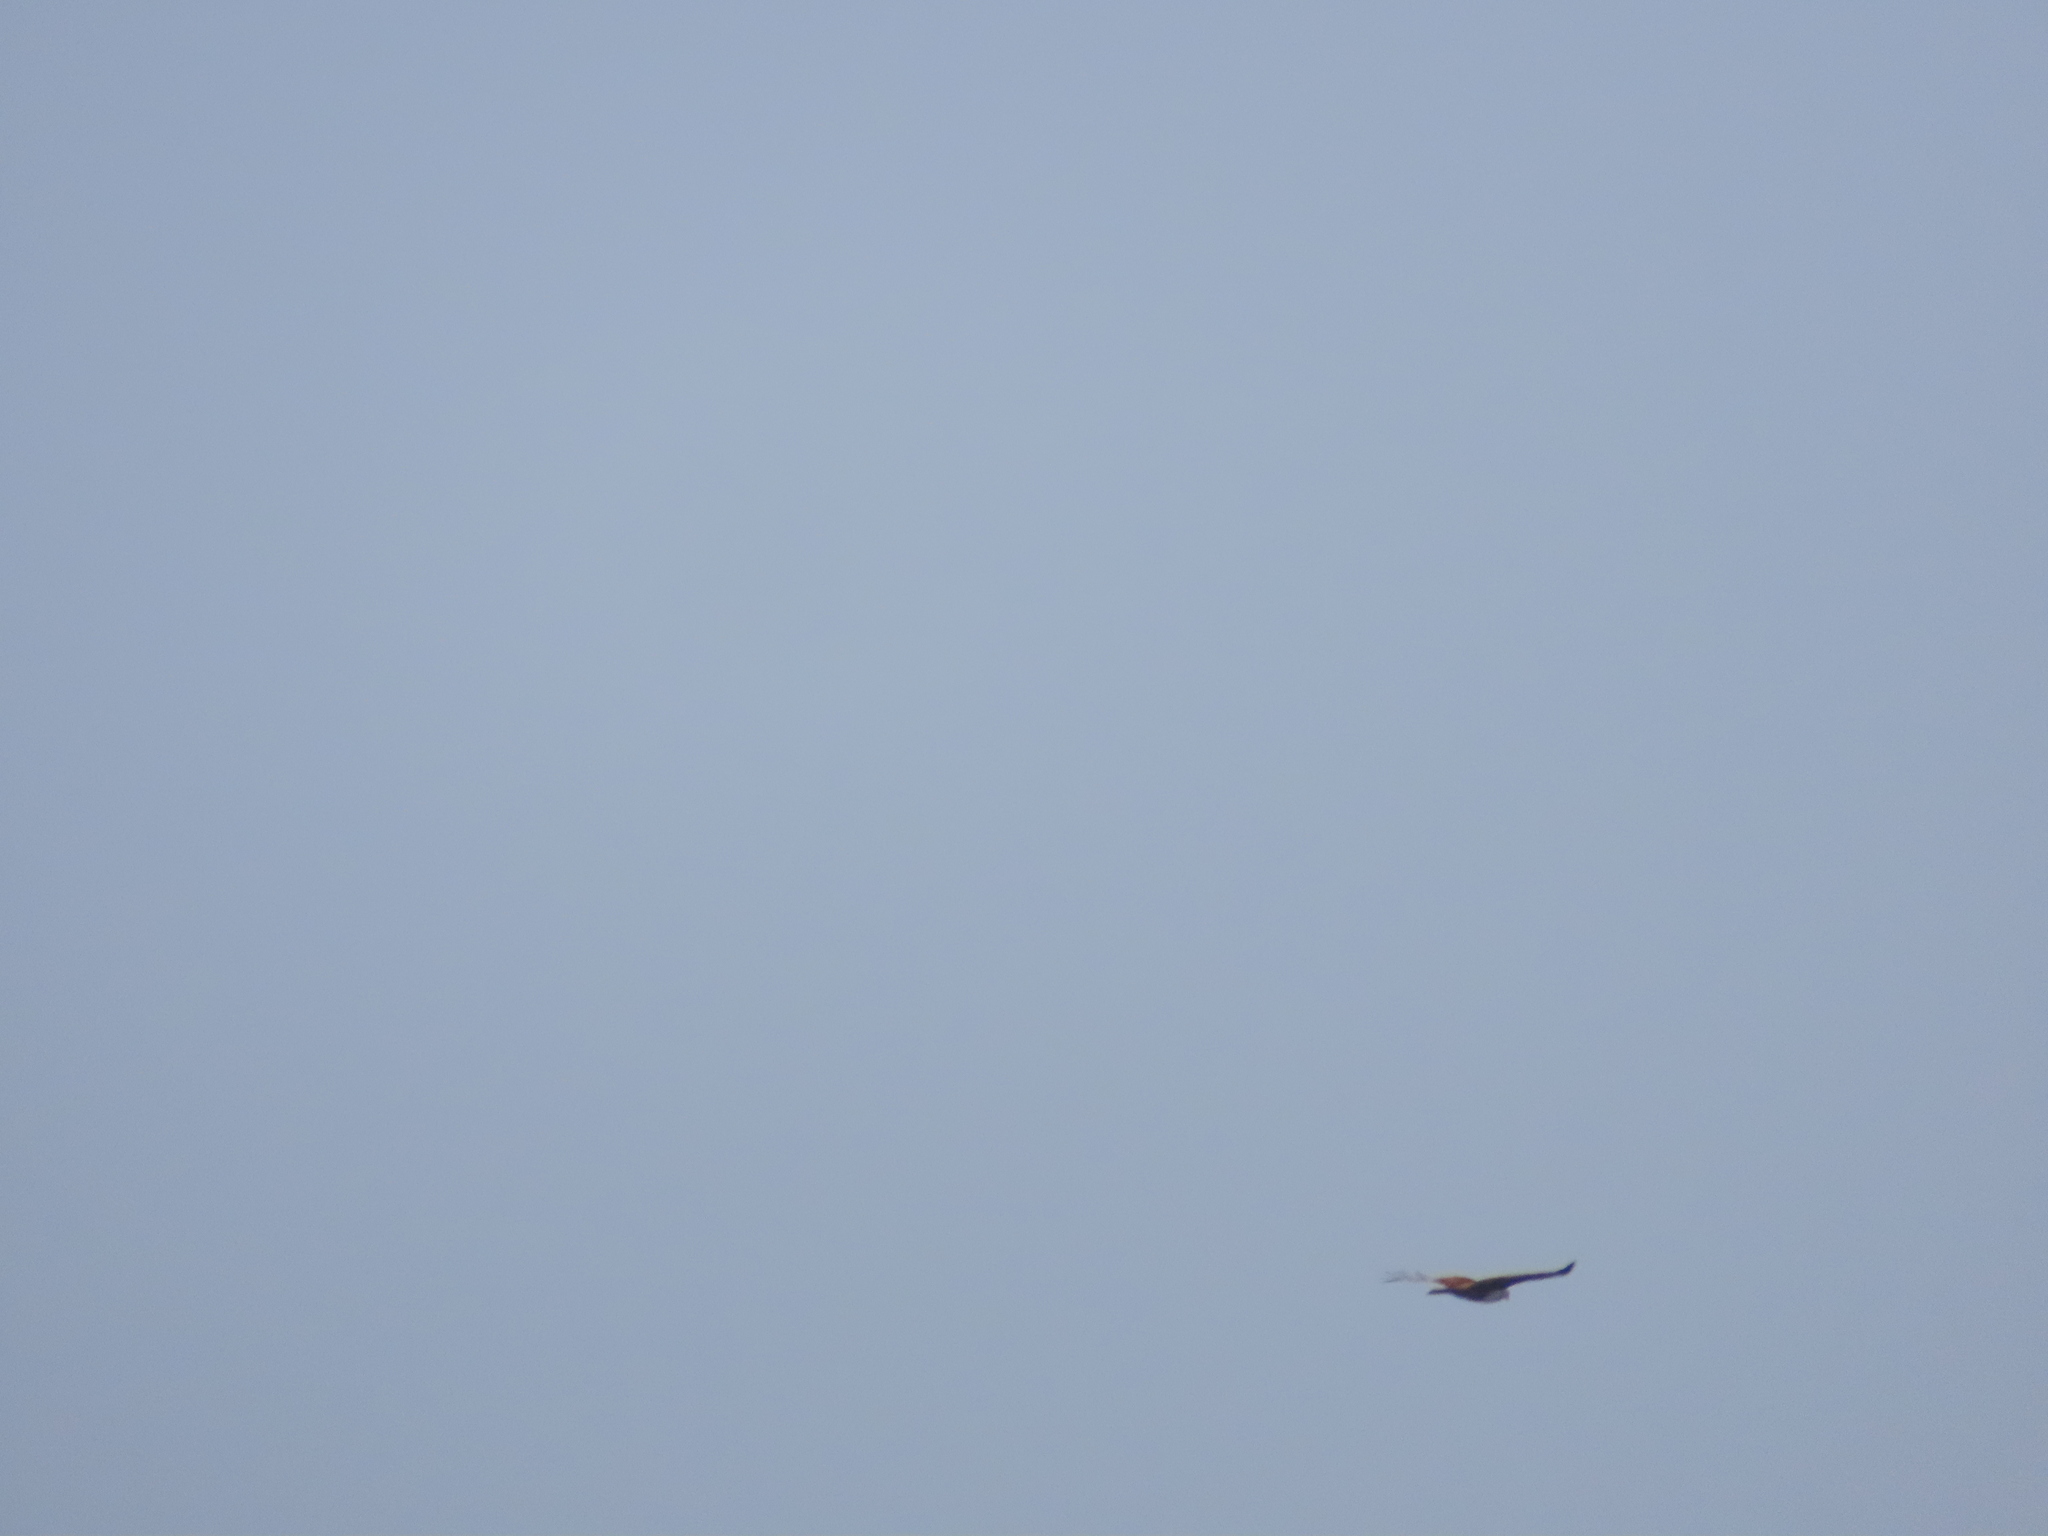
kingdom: Animalia
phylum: Chordata
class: Aves
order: Accipitriformes
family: Accipitridae
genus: Haliastur
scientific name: Haliastur indus
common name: Brahminy kite
